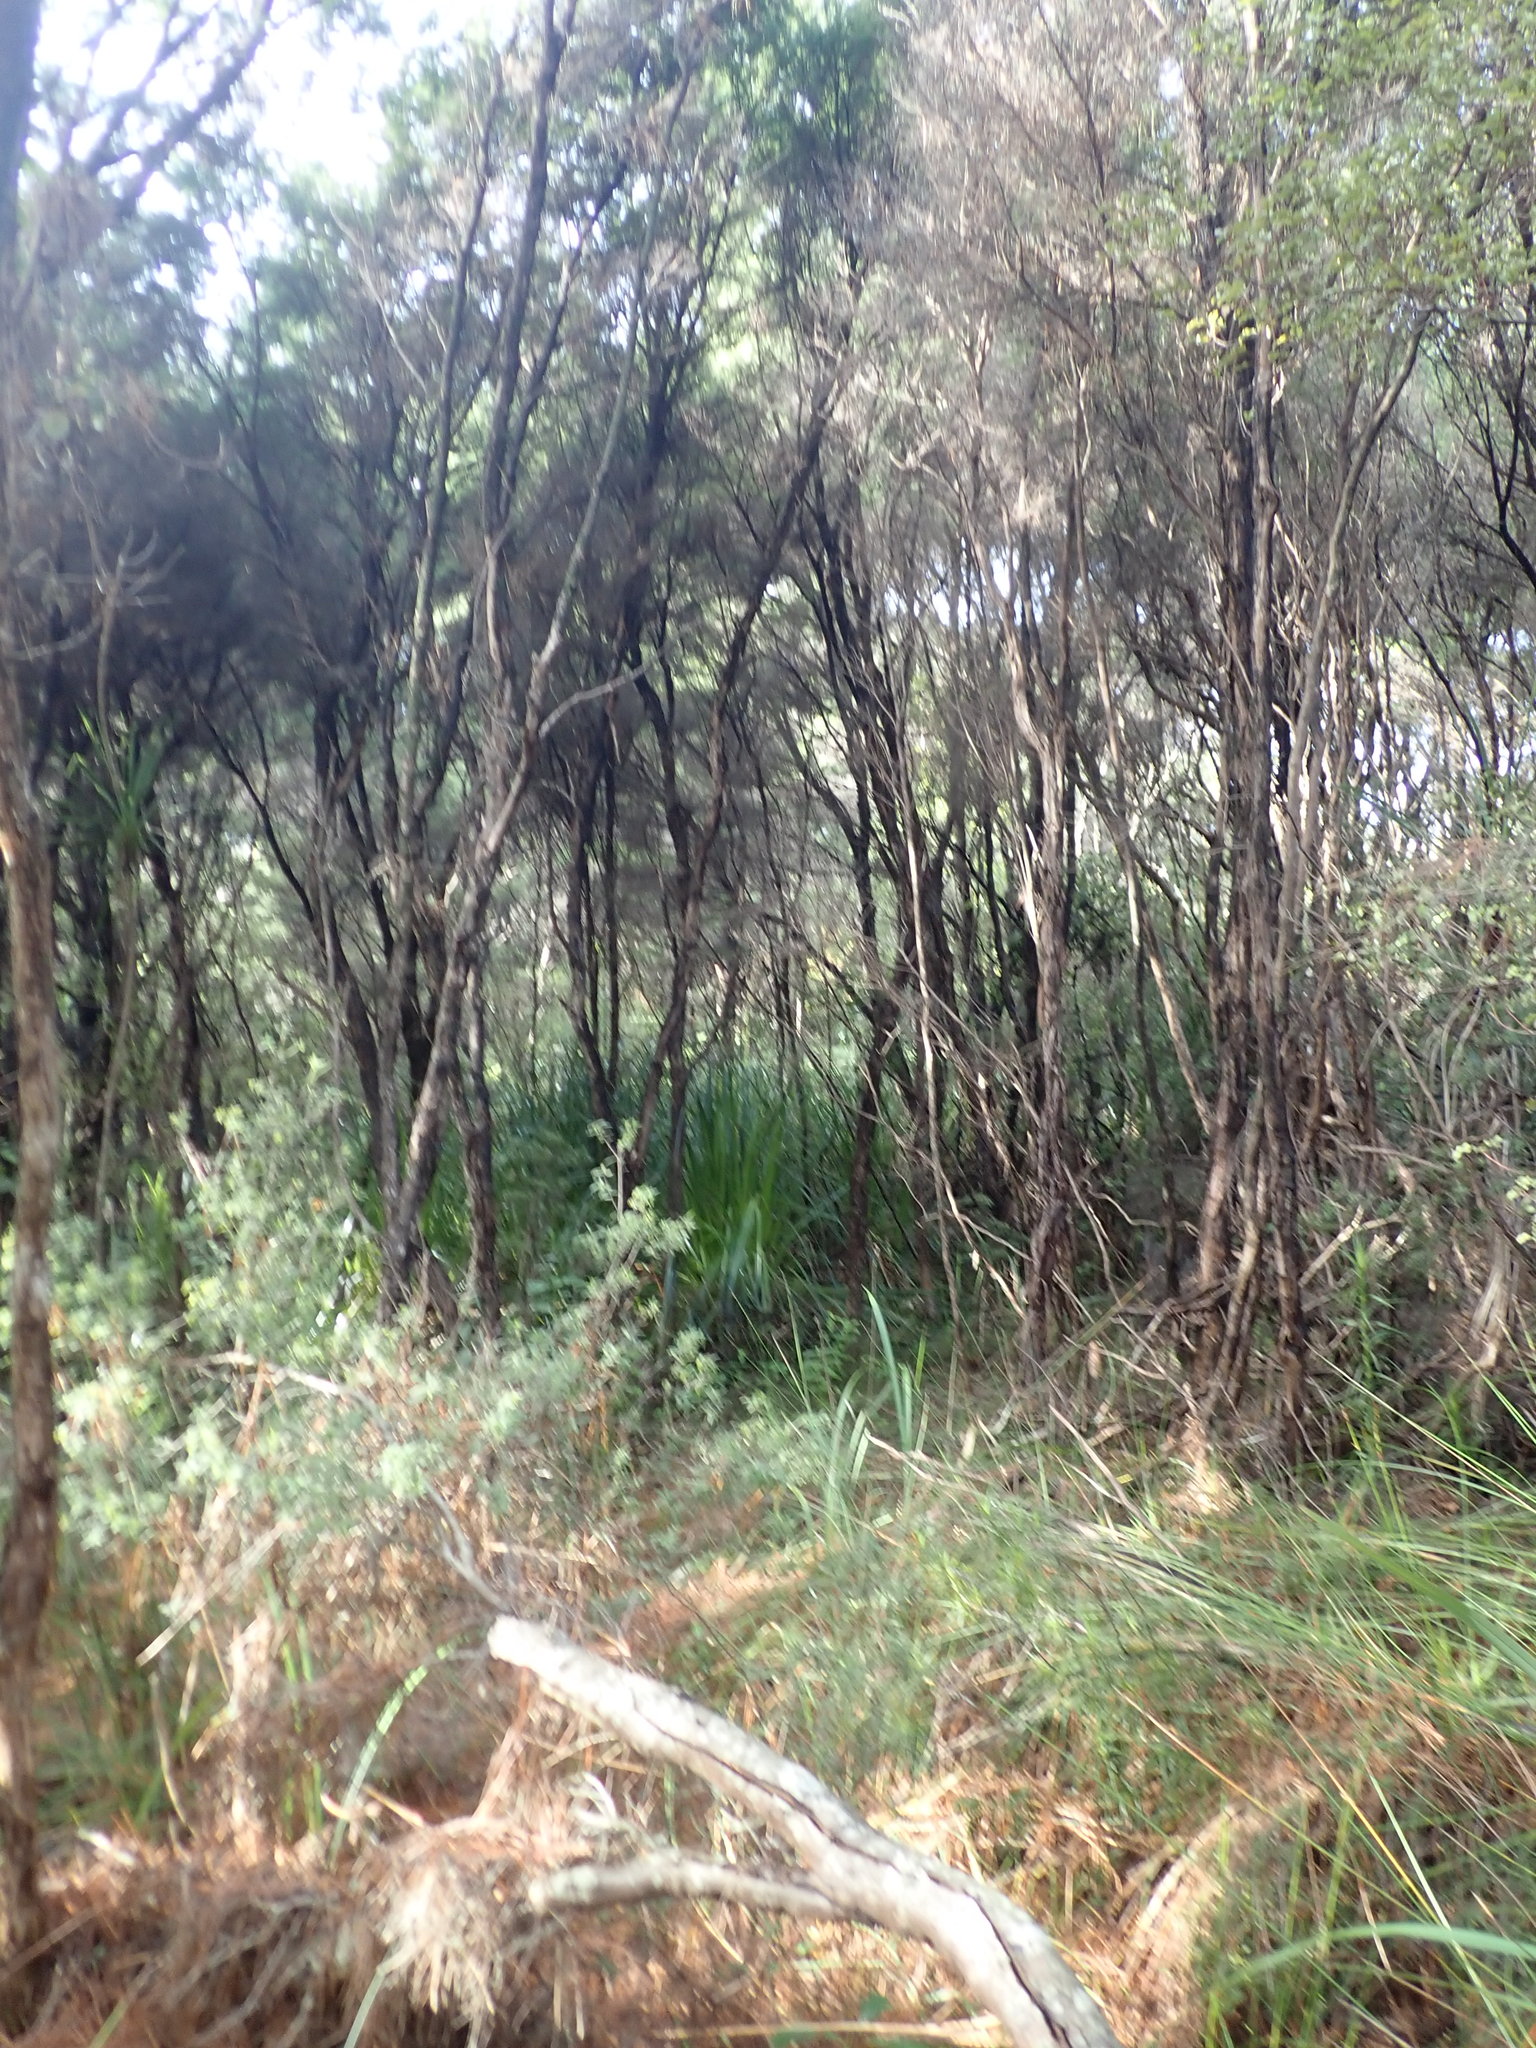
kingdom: Plantae
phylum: Tracheophyta
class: Liliopsida
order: Poales
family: Cyperaceae
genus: Schoenus
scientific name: Schoenus tendo
